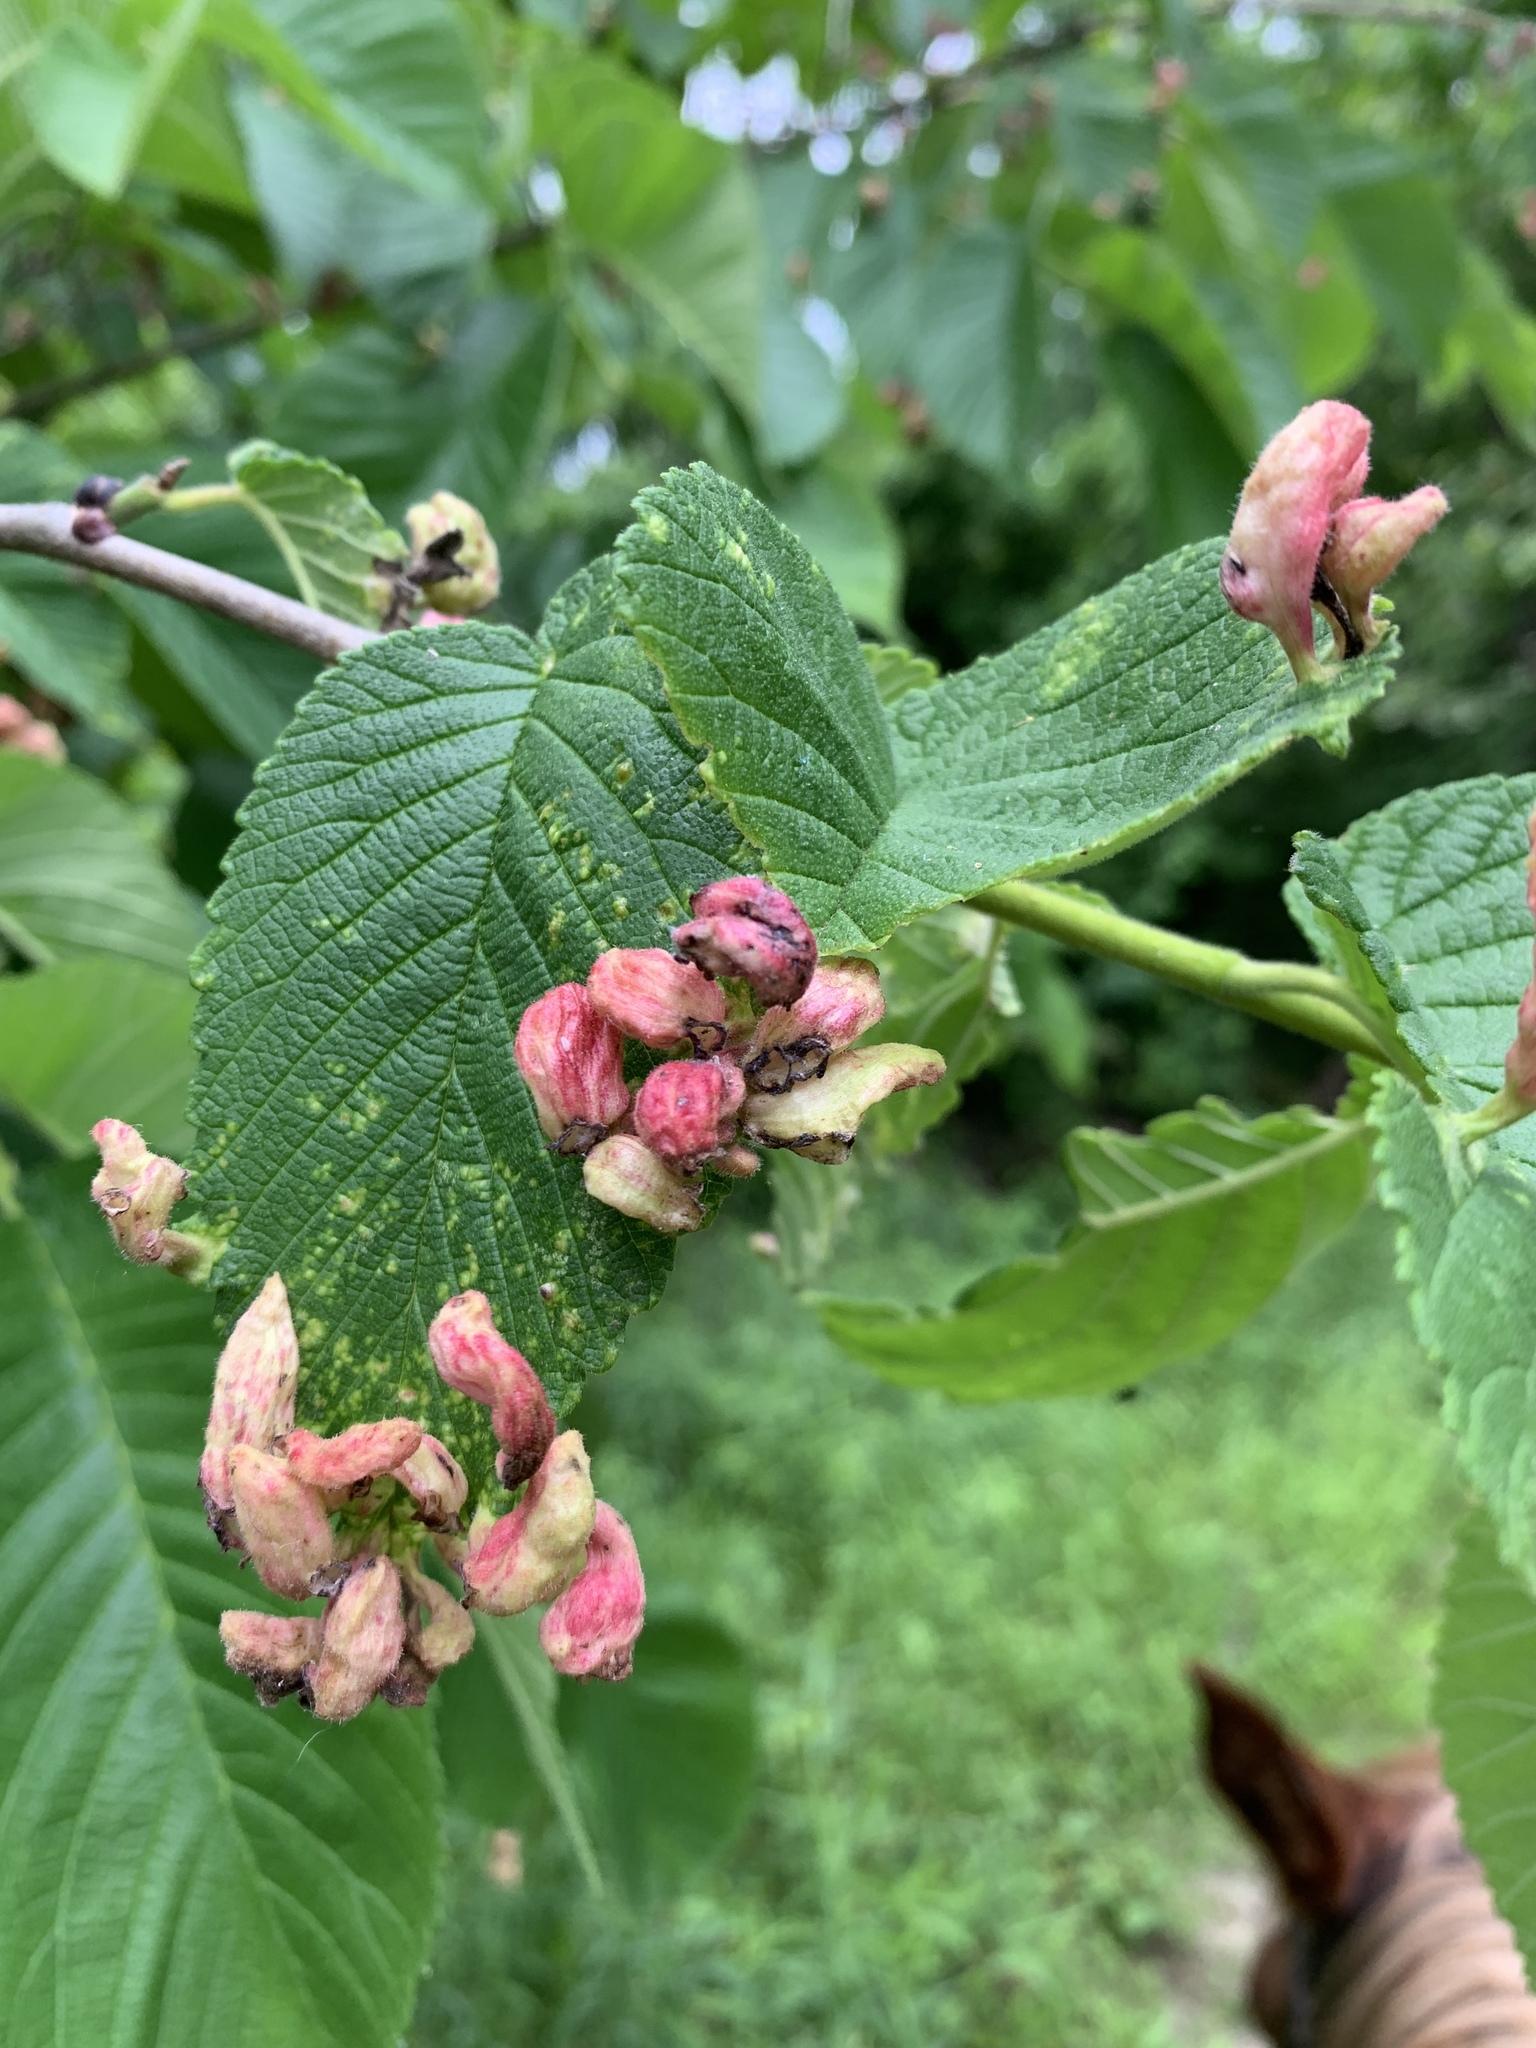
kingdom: Animalia
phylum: Arthropoda
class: Insecta
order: Hemiptera
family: Aphididae
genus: Tetraneura
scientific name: Tetraneura nigriabdominalis
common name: Aphid
